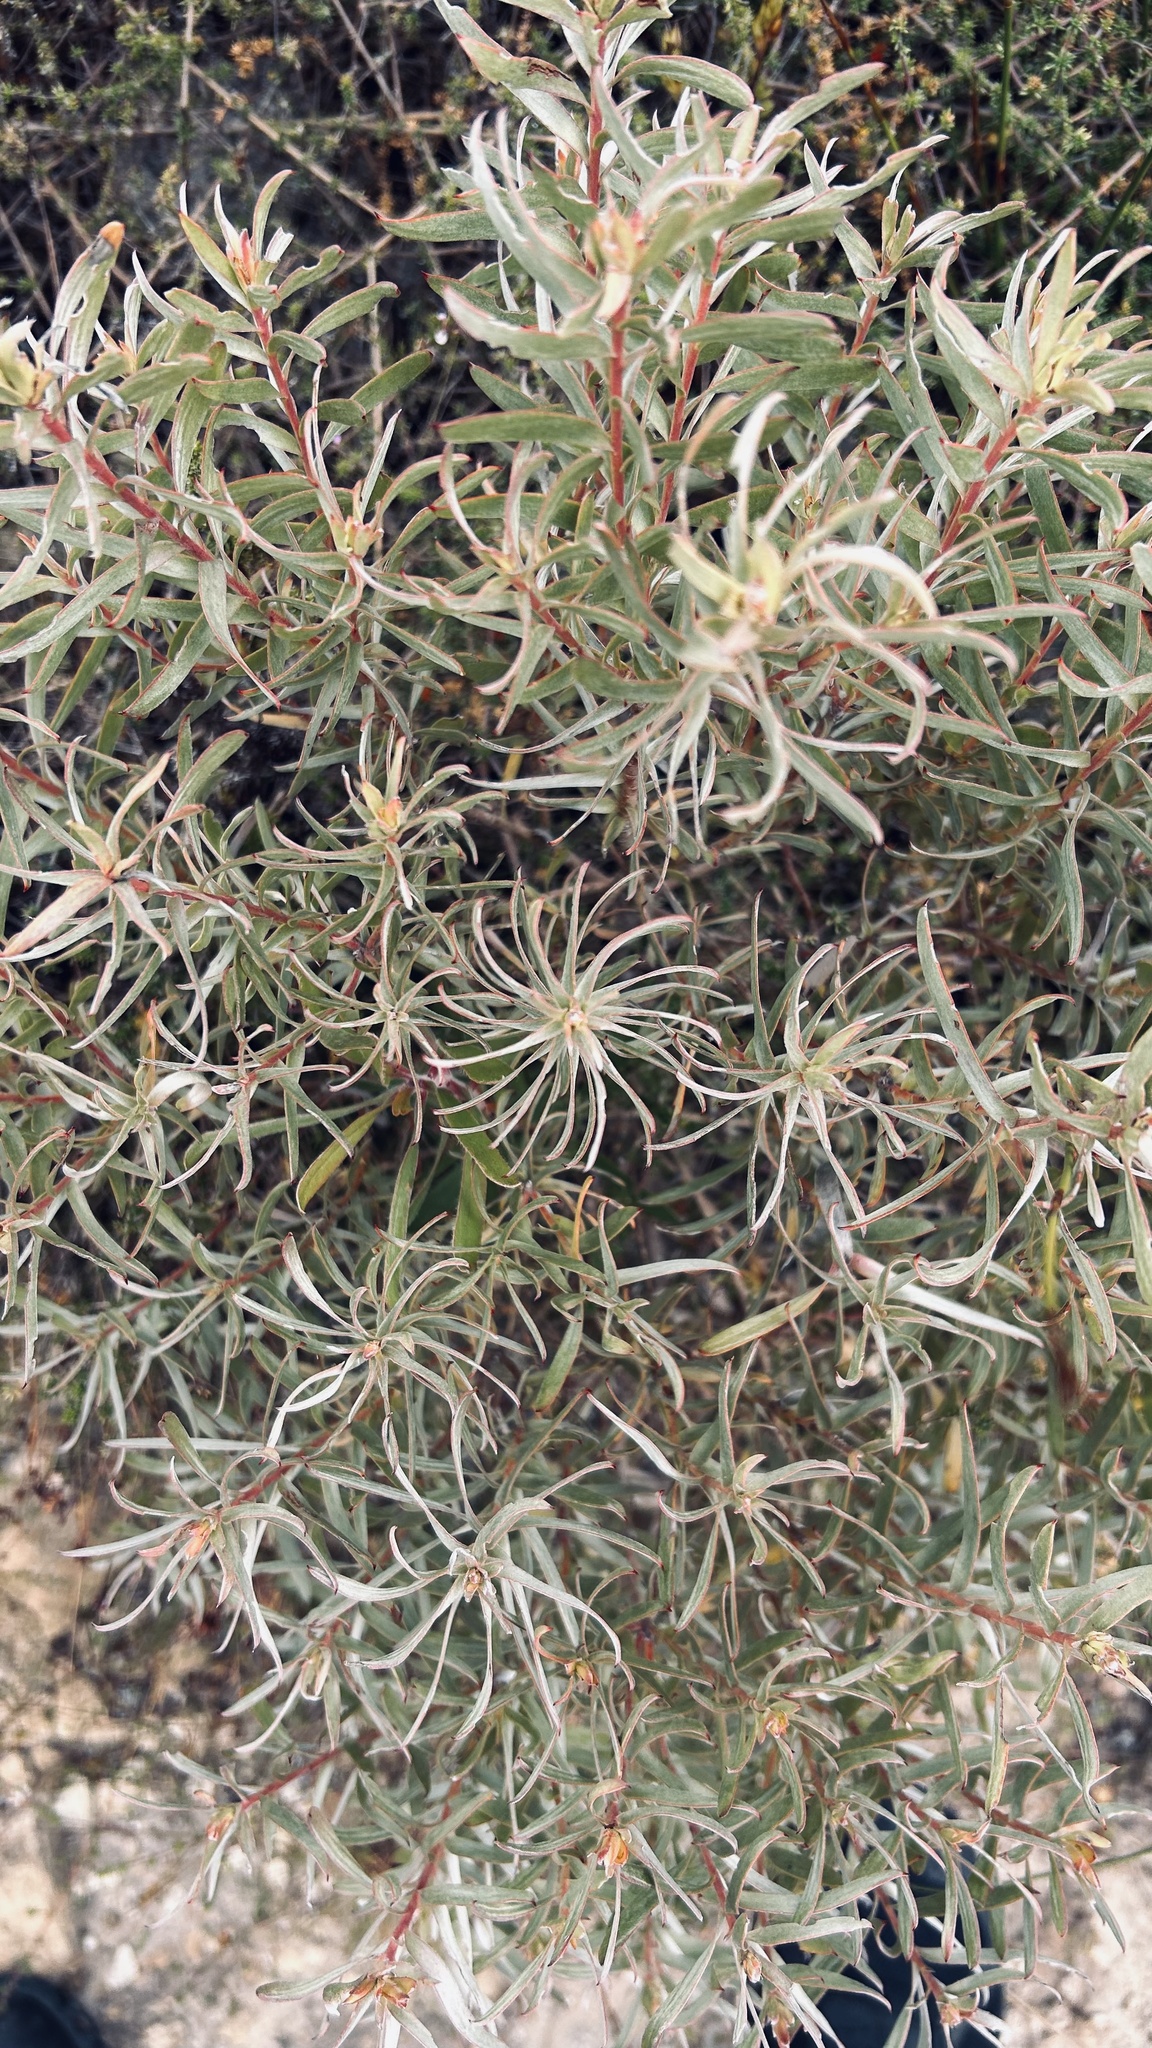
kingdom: Plantae
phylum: Tracheophyta
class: Magnoliopsida
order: Proteales
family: Proteaceae
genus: Leucadendron
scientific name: Leucadendron galpinii
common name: Hairless conebush
